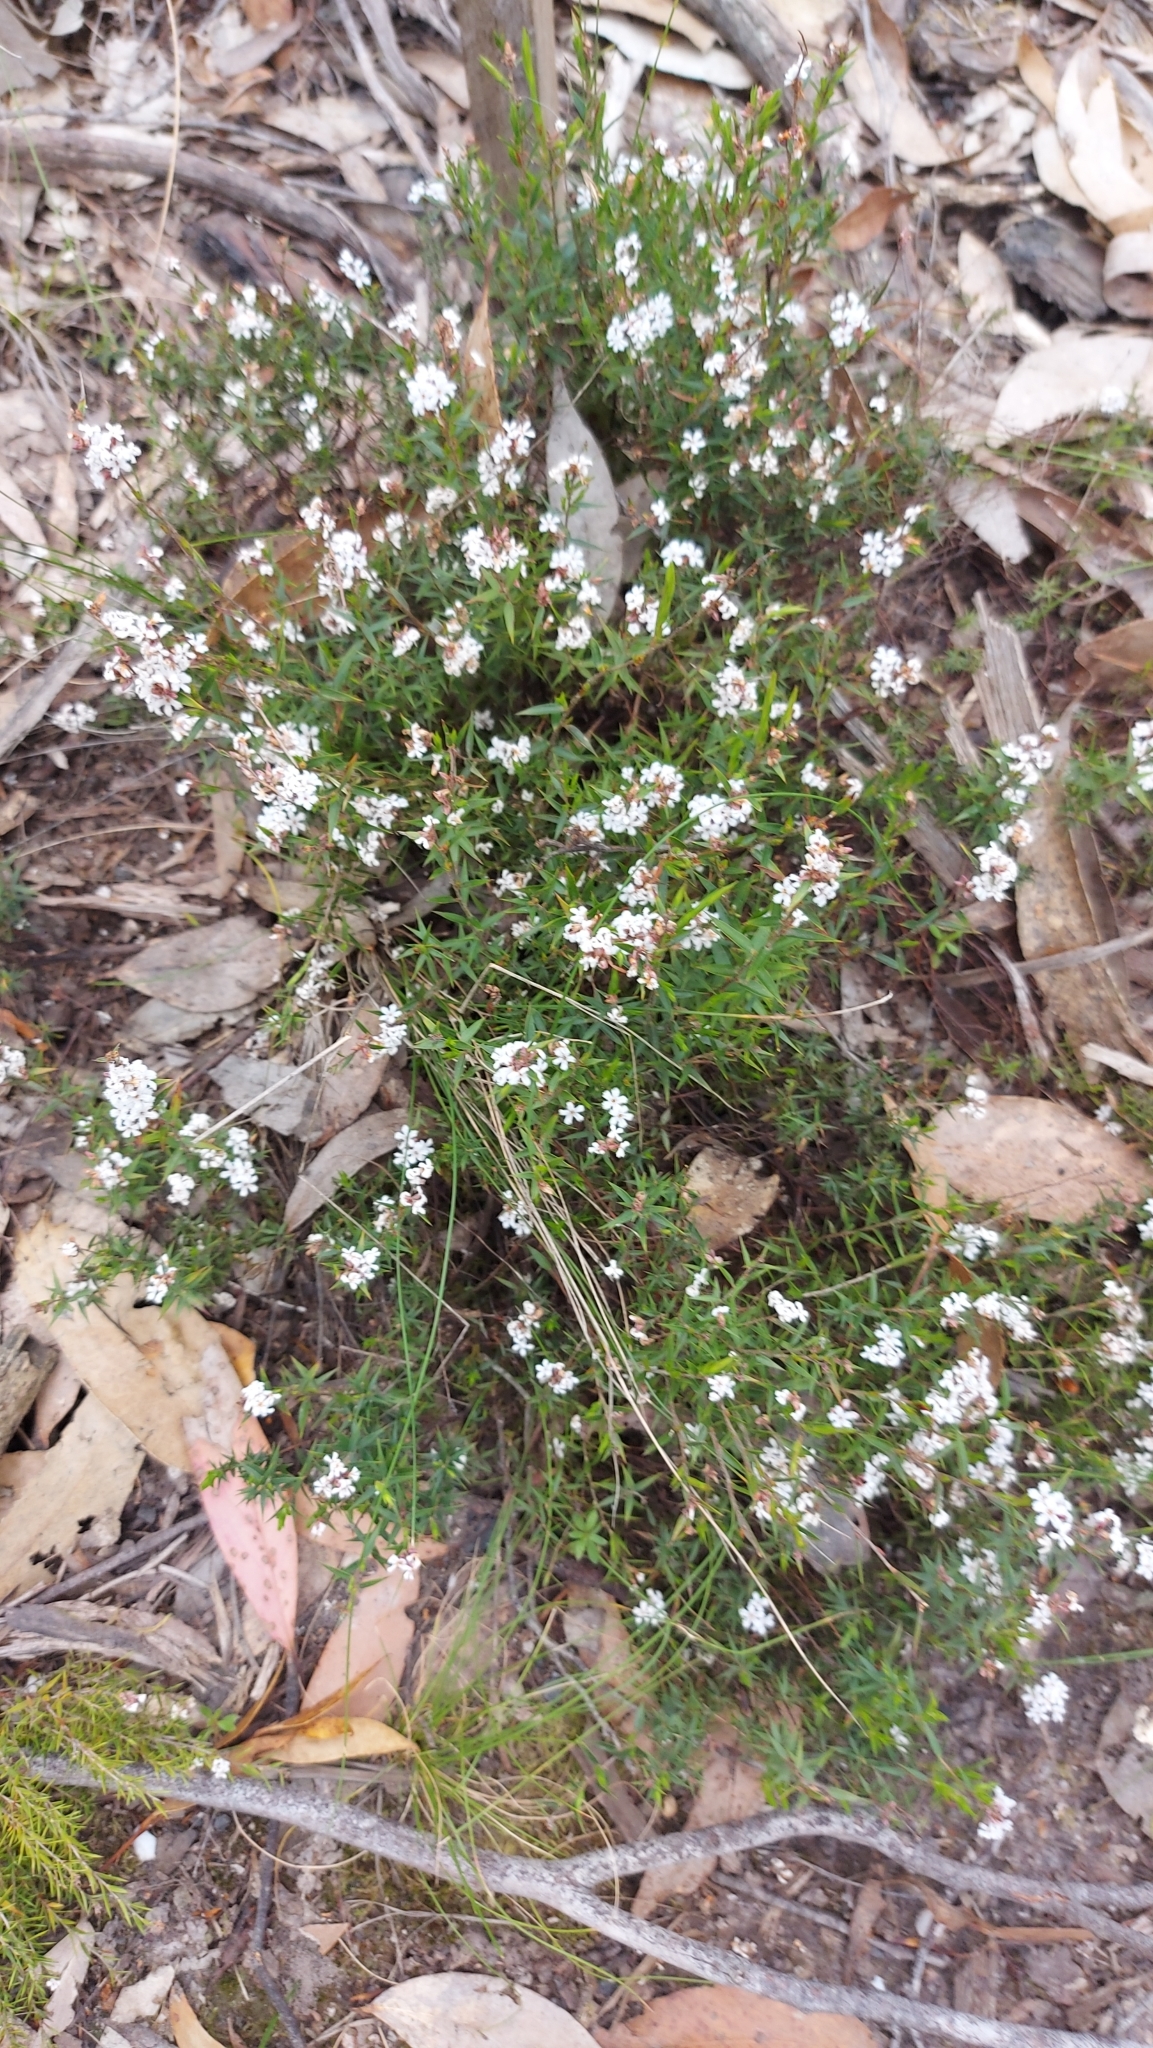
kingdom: Plantae
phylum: Tracheophyta
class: Magnoliopsida
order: Ericales
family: Ericaceae
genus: Leucopogon
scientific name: Leucopogon virgatus
